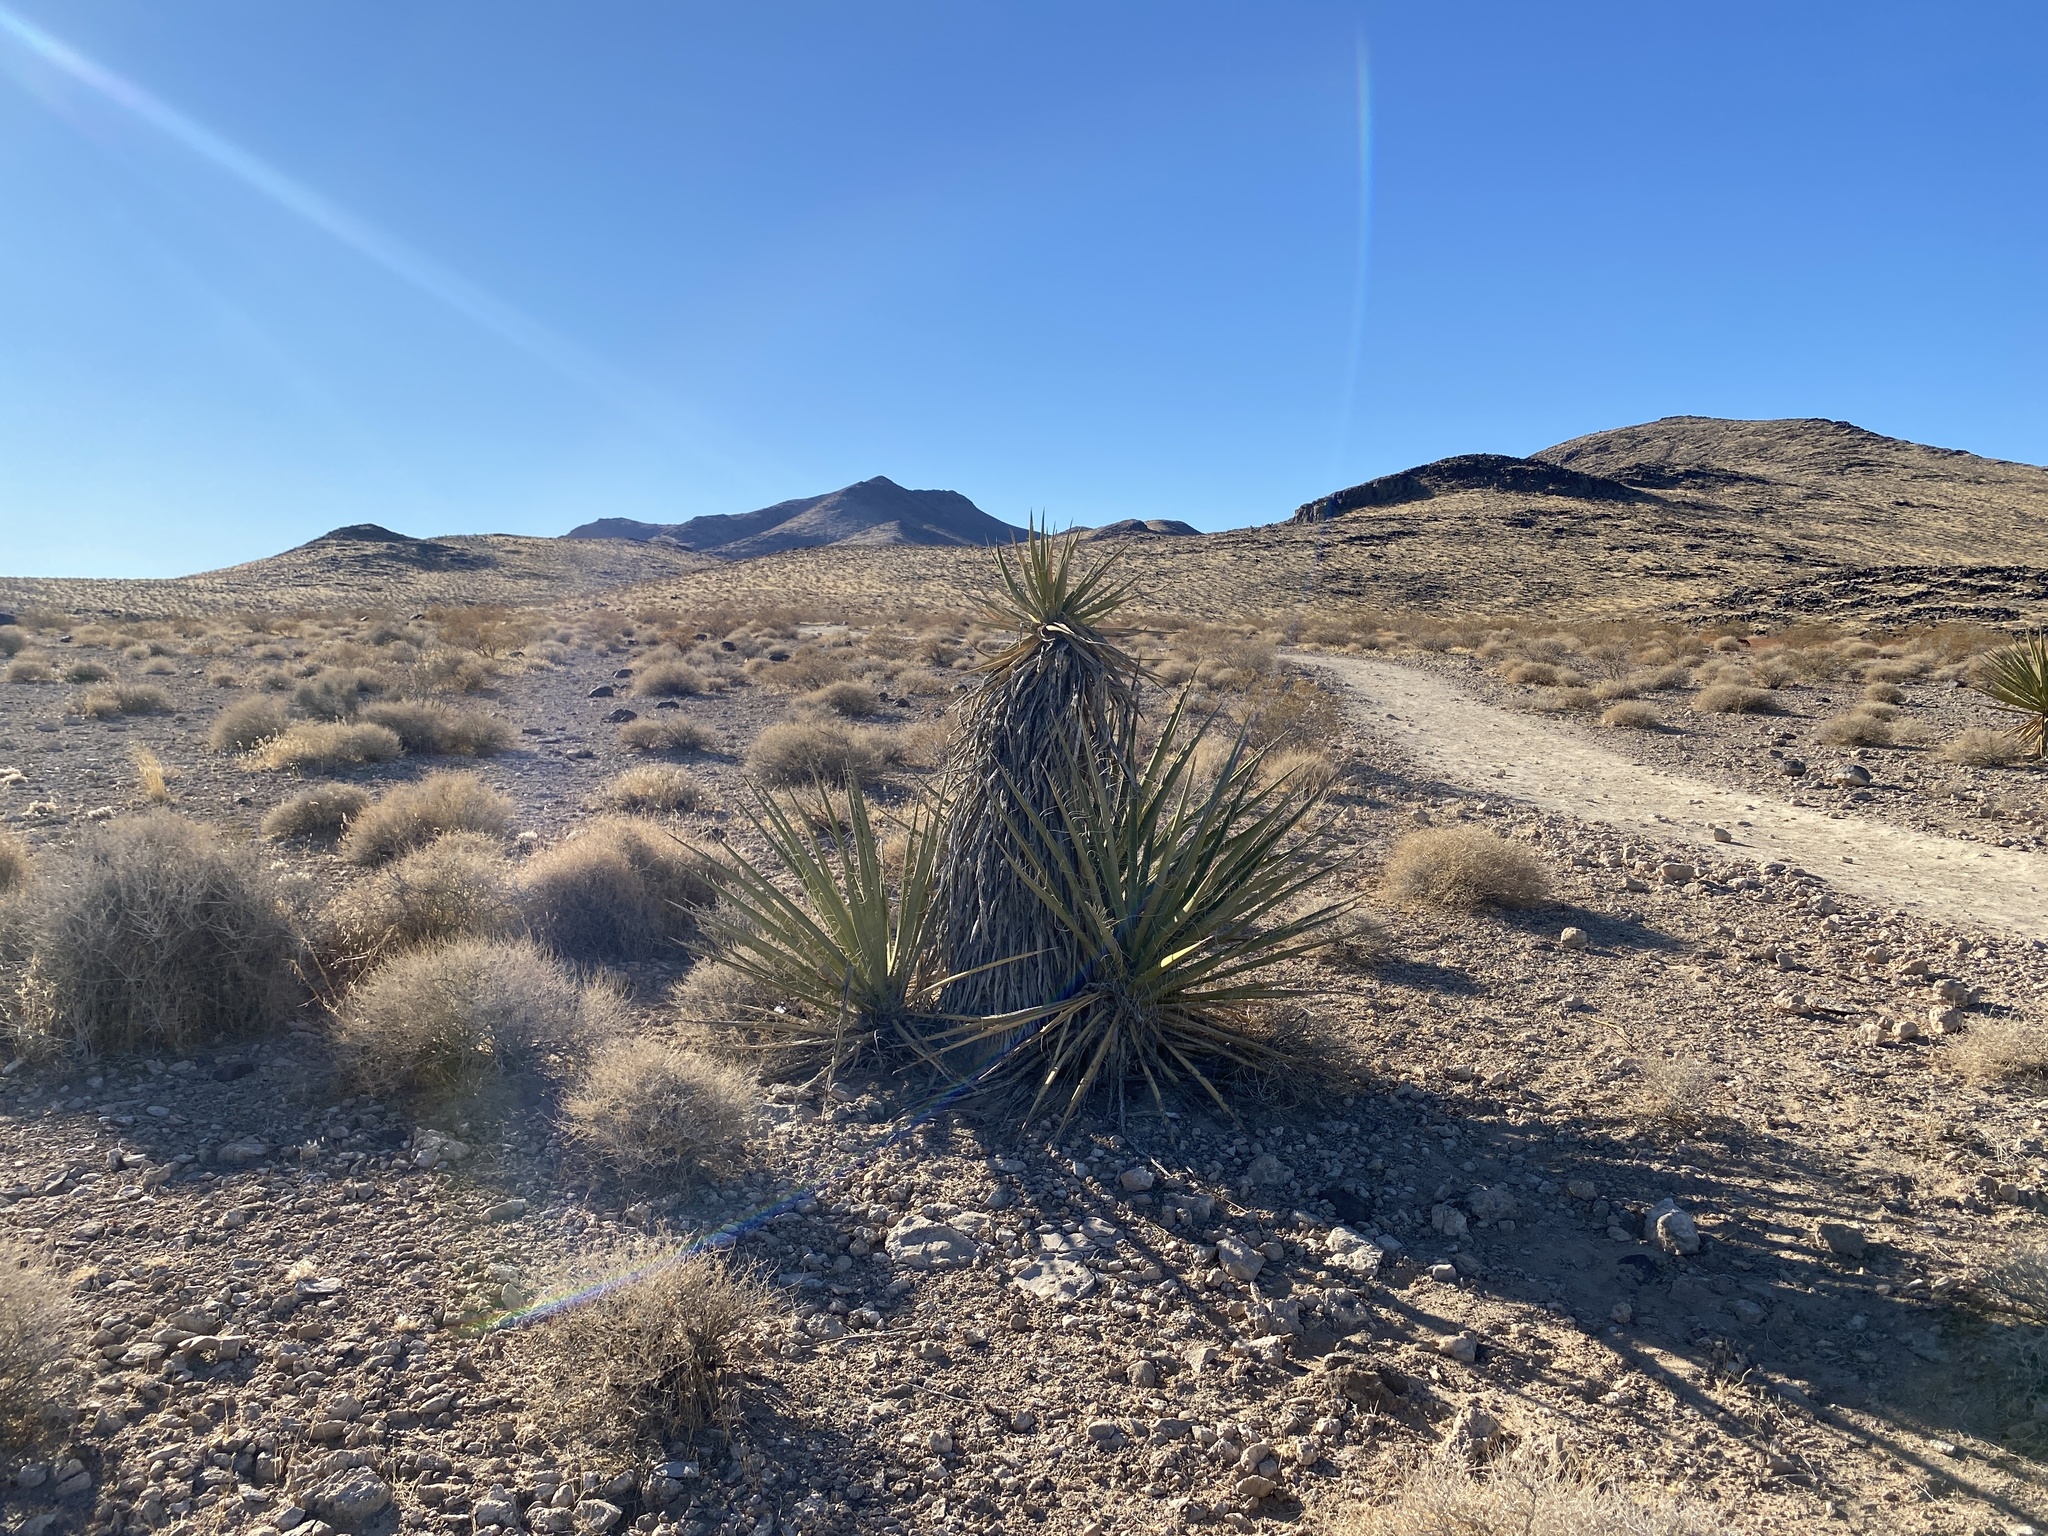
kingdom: Plantae
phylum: Tracheophyta
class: Liliopsida
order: Asparagales
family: Asparagaceae
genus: Yucca
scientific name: Yucca schidigera
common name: Mojave yucca
